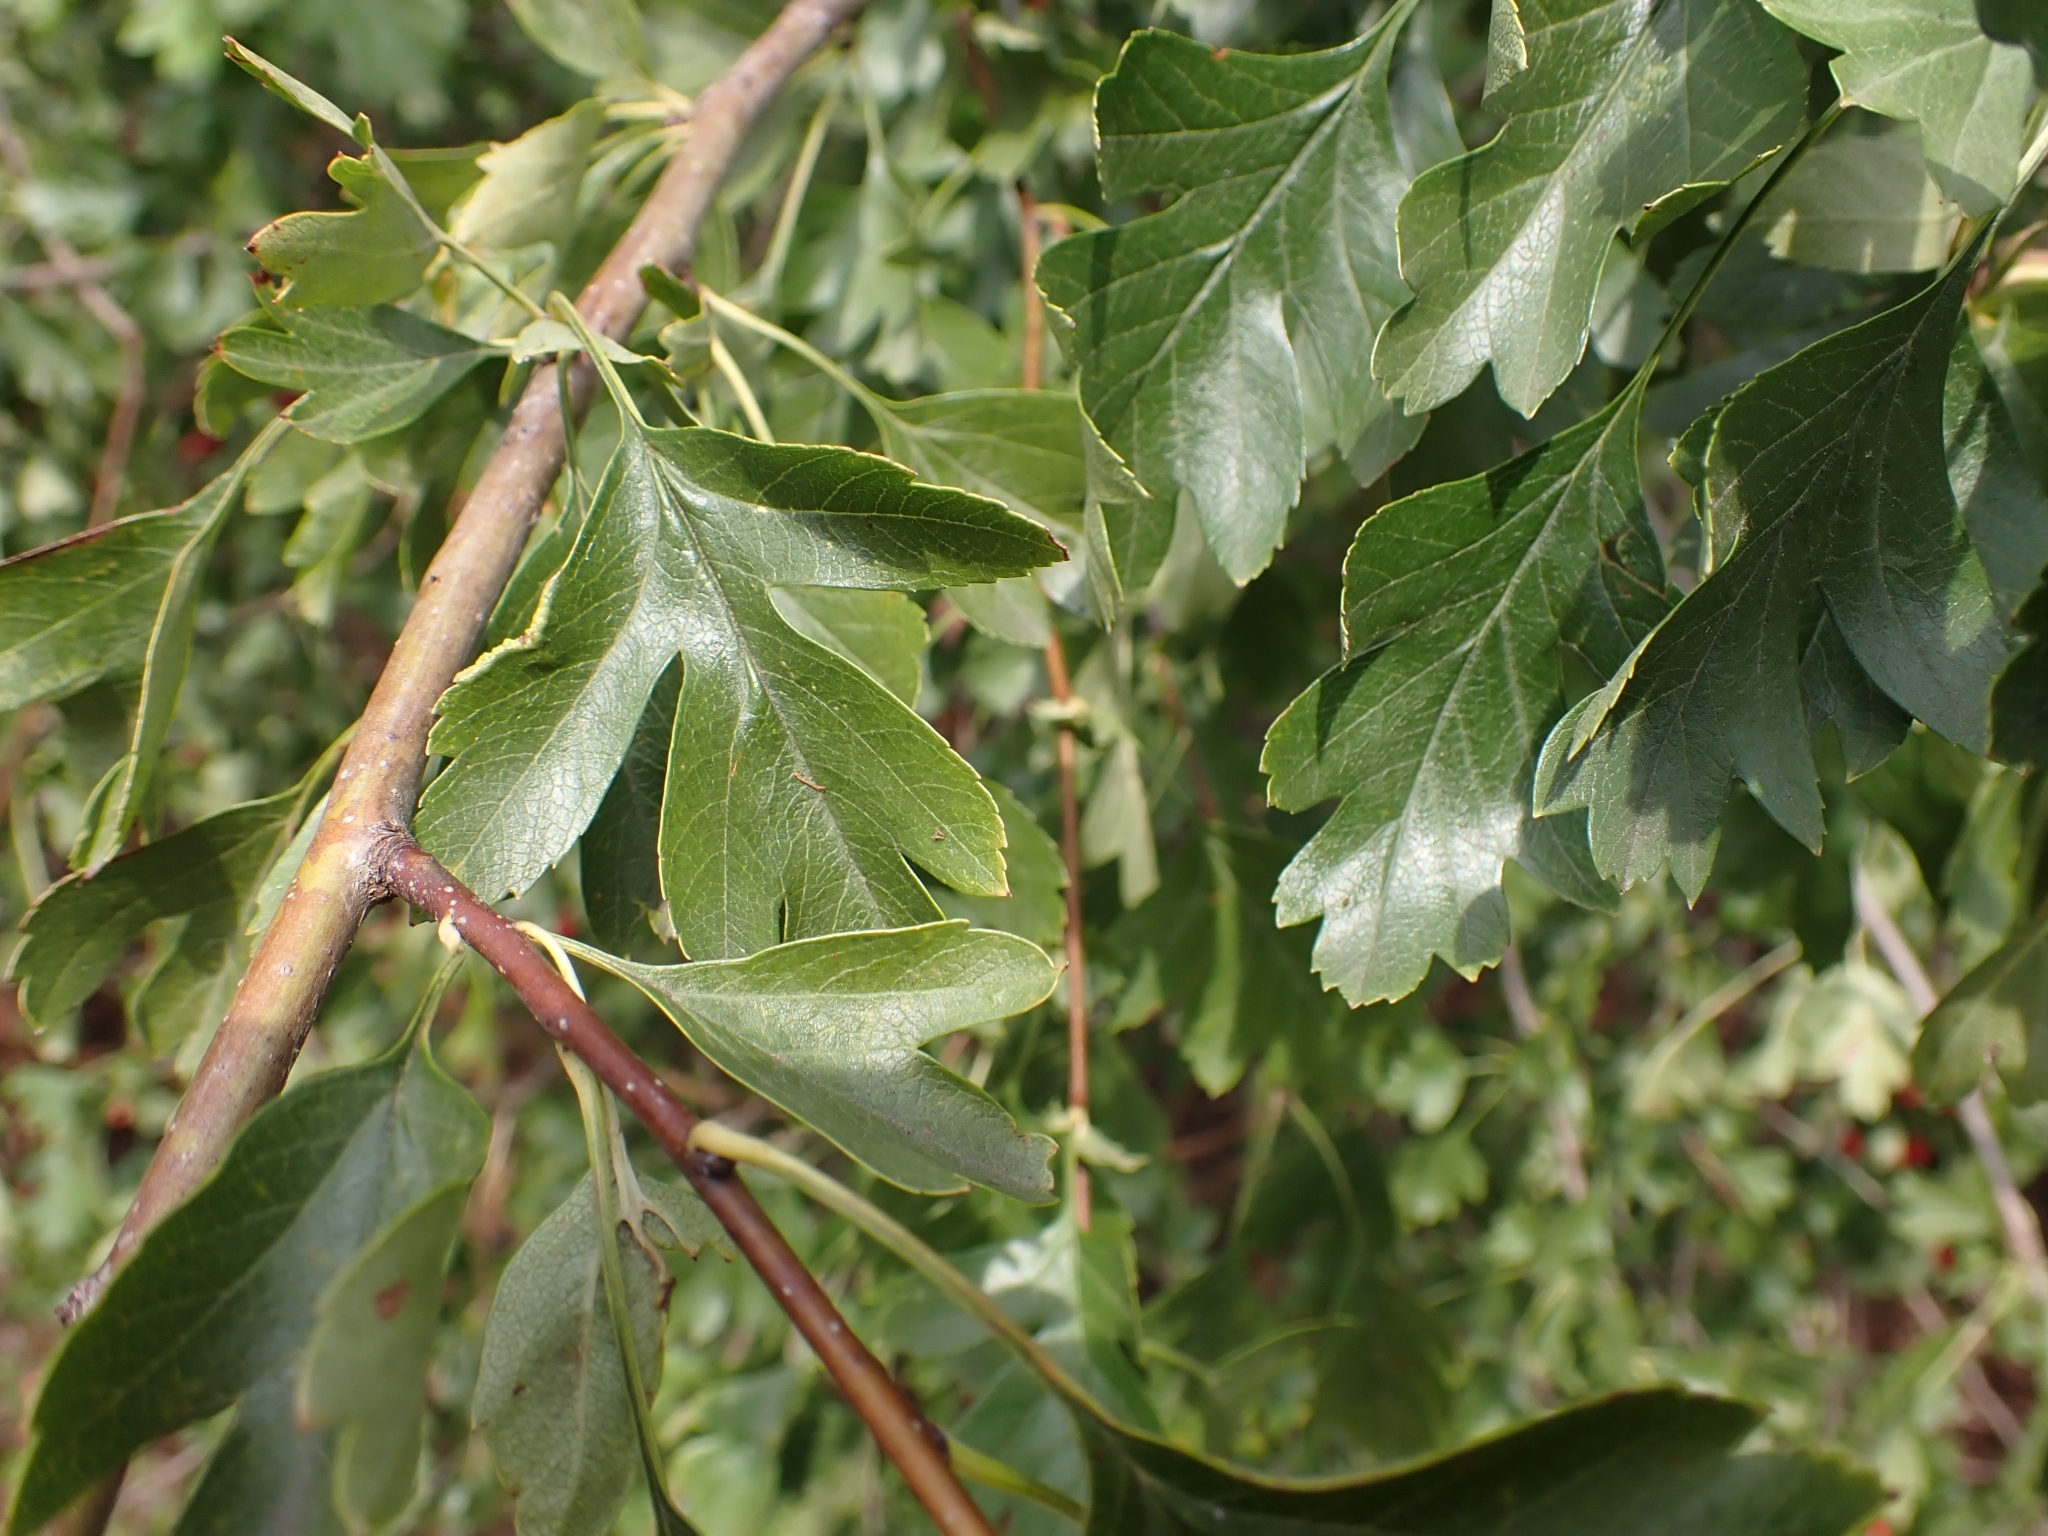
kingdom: Animalia
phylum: Arthropoda
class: Arachnida
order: Trombidiformes
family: Eriophyidae
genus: Phyllocoptes
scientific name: Phyllocoptes goniothorax
